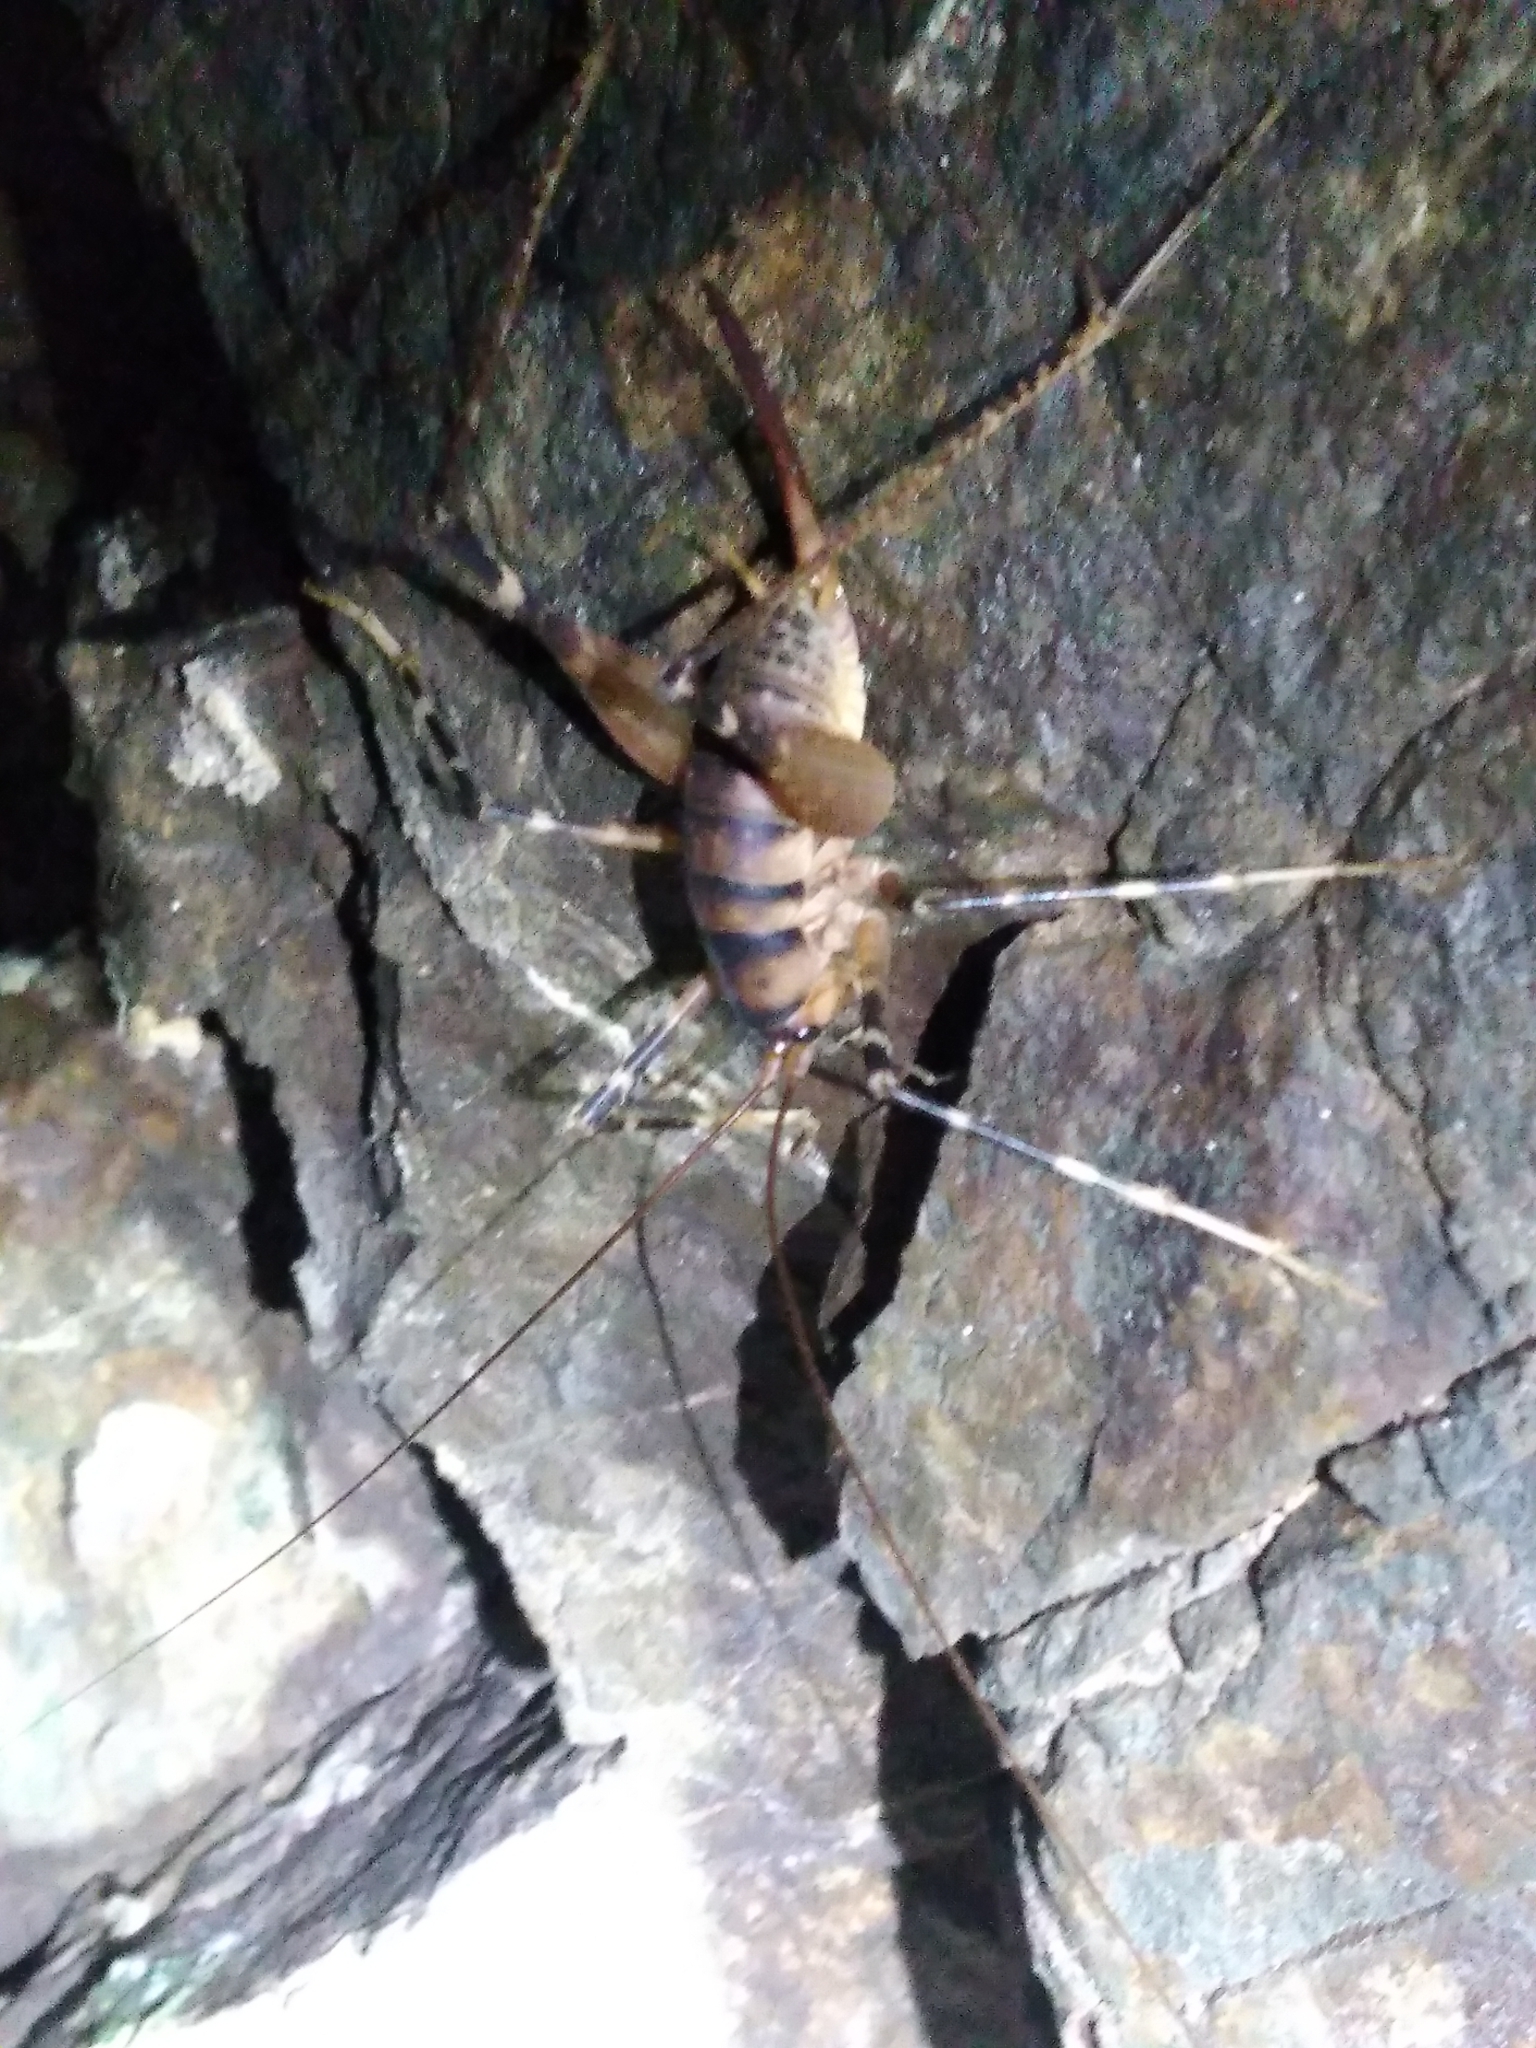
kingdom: Animalia
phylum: Arthropoda
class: Insecta
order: Orthoptera
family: Rhaphidophoridae
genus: Pachyrhamma
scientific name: Pachyrhamma edwardsii
